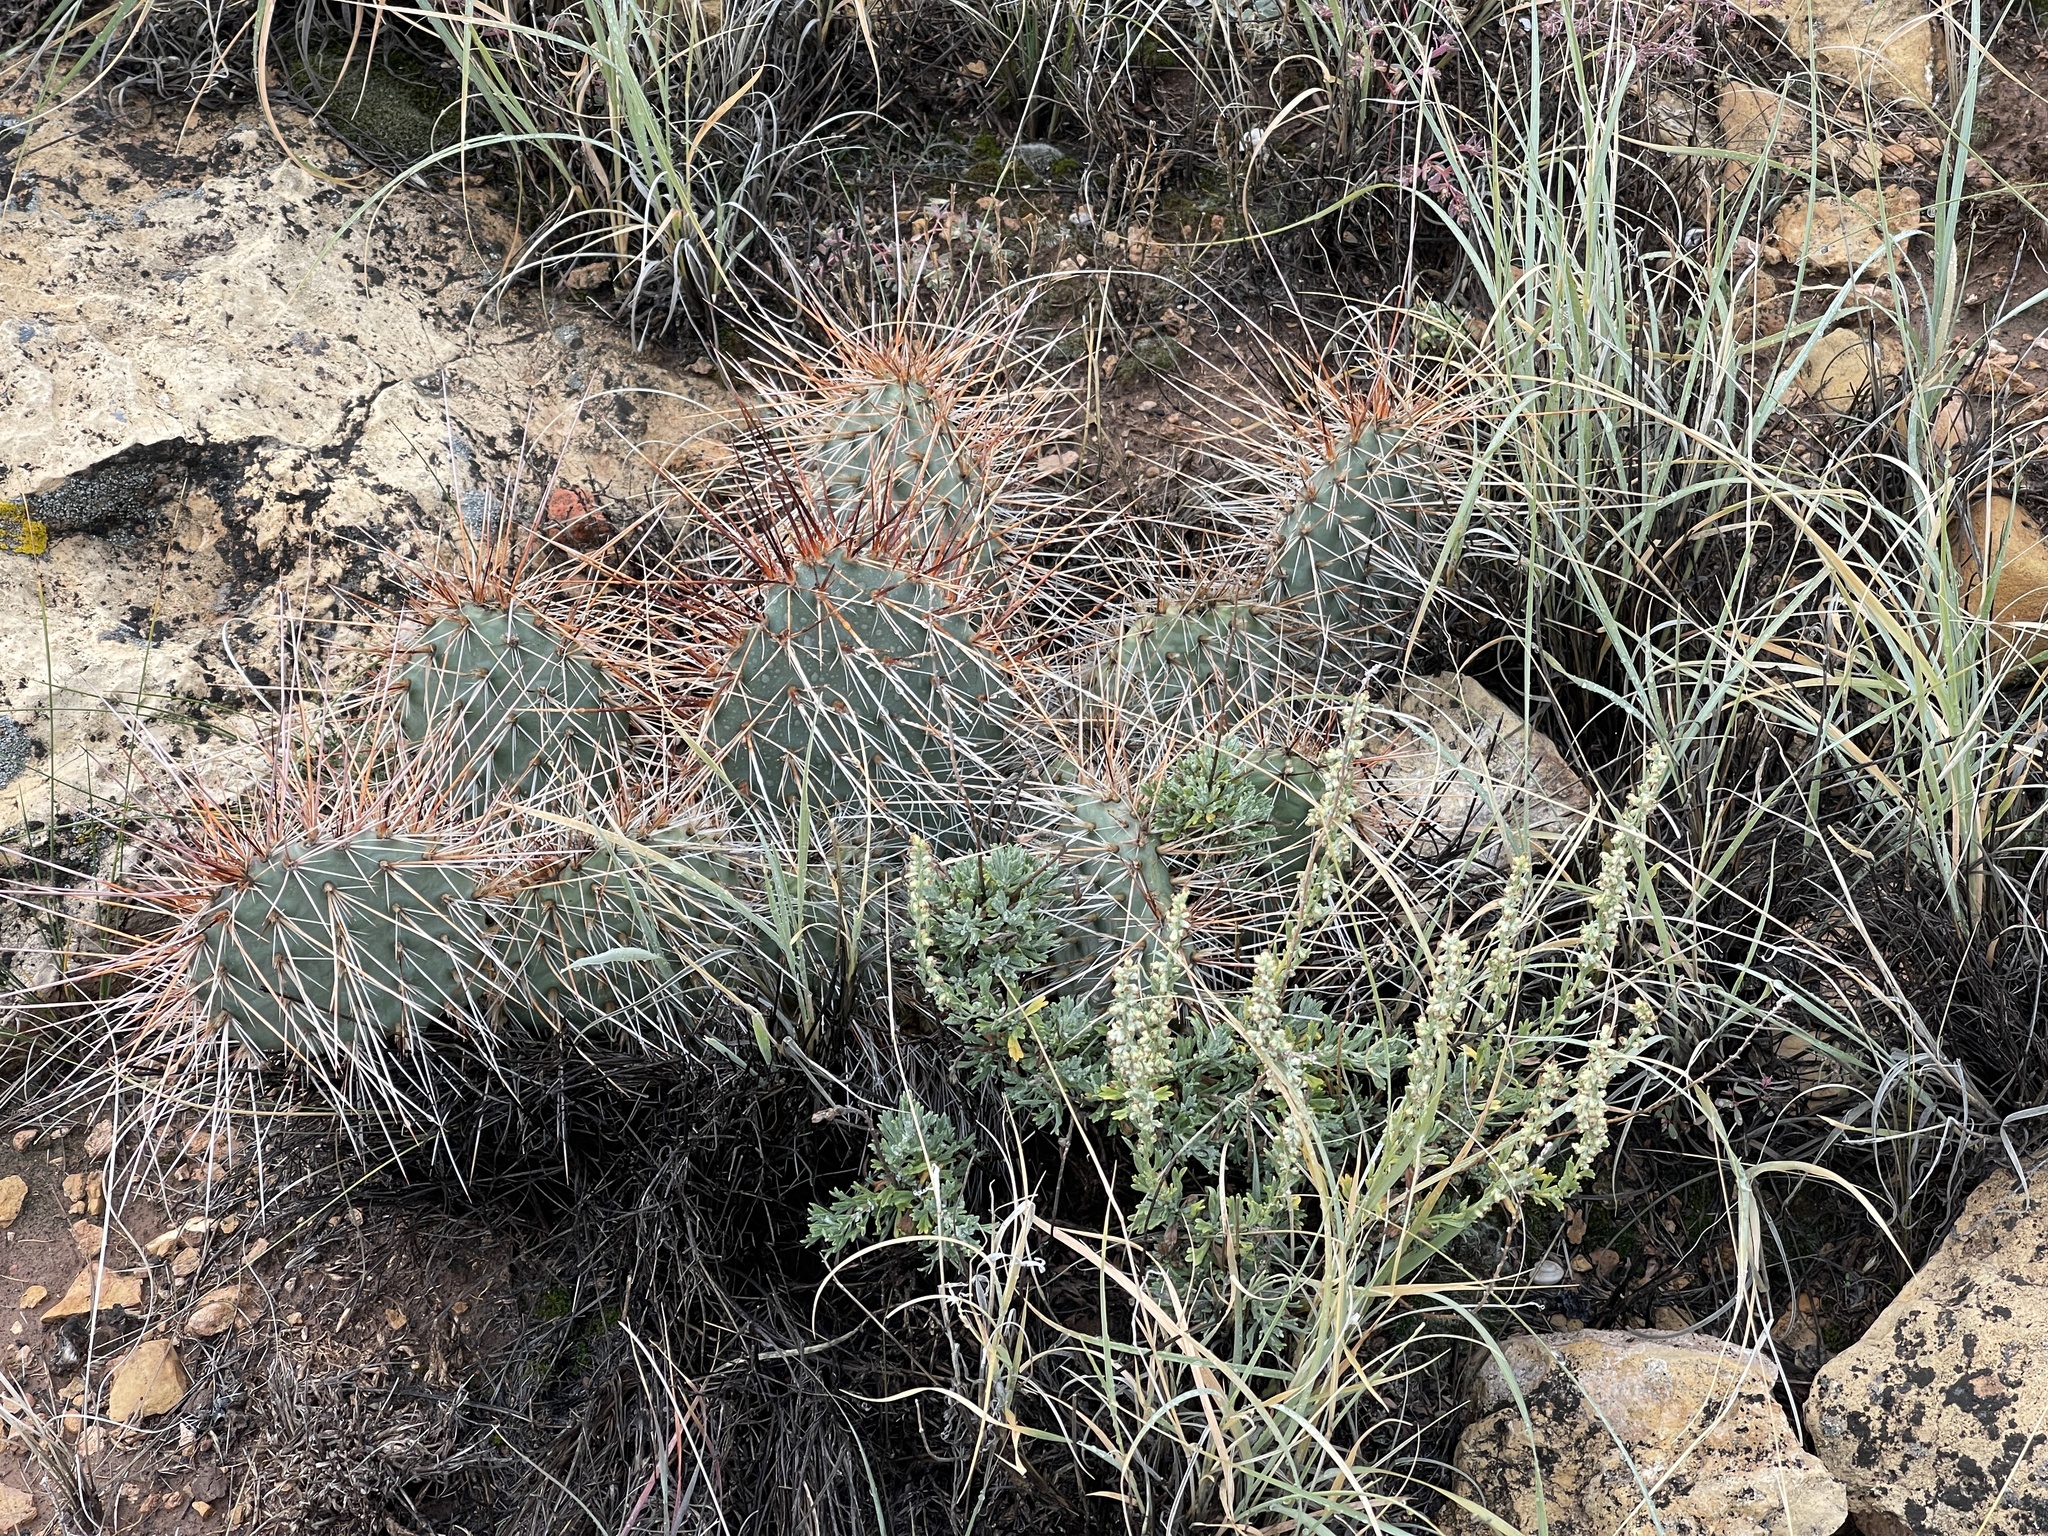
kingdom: Plantae
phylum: Tracheophyta
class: Magnoliopsida
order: Caryophyllales
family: Cactaceae
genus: Opuntia
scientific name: Opuntia polyacantha
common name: Plains prickly-pear
